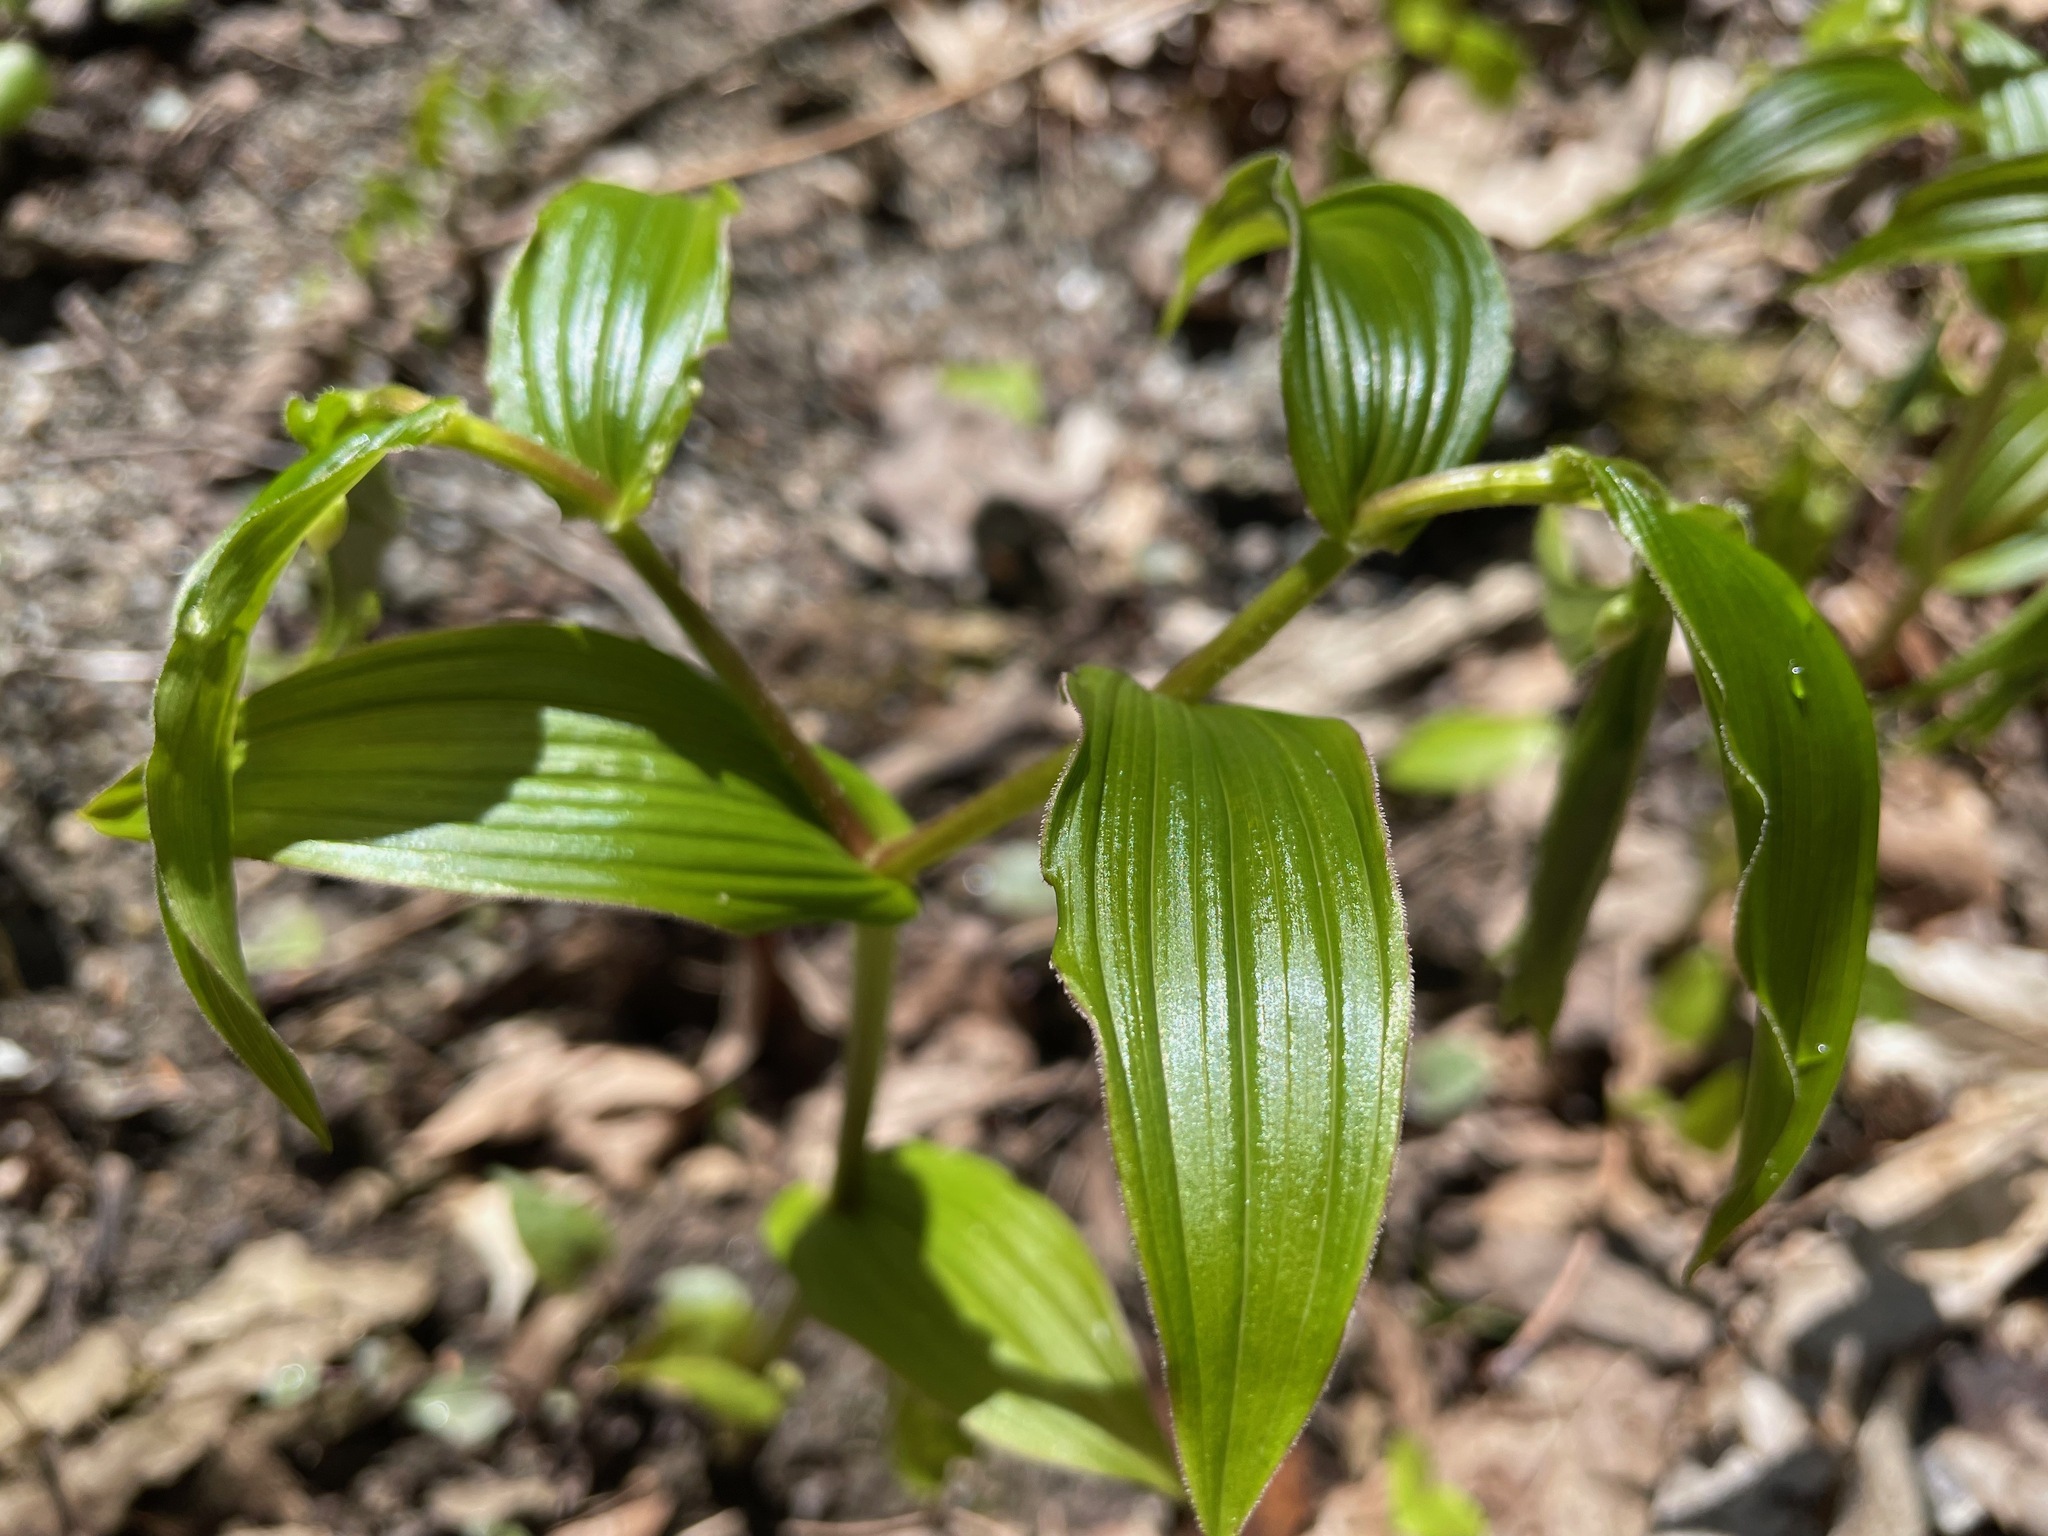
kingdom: Plantae
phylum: Tracheophyta
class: Liliopsida
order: Liliales
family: Liliaceae
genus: Streptopus
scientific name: Streptopus lanceolatus
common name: Rose mandarin
